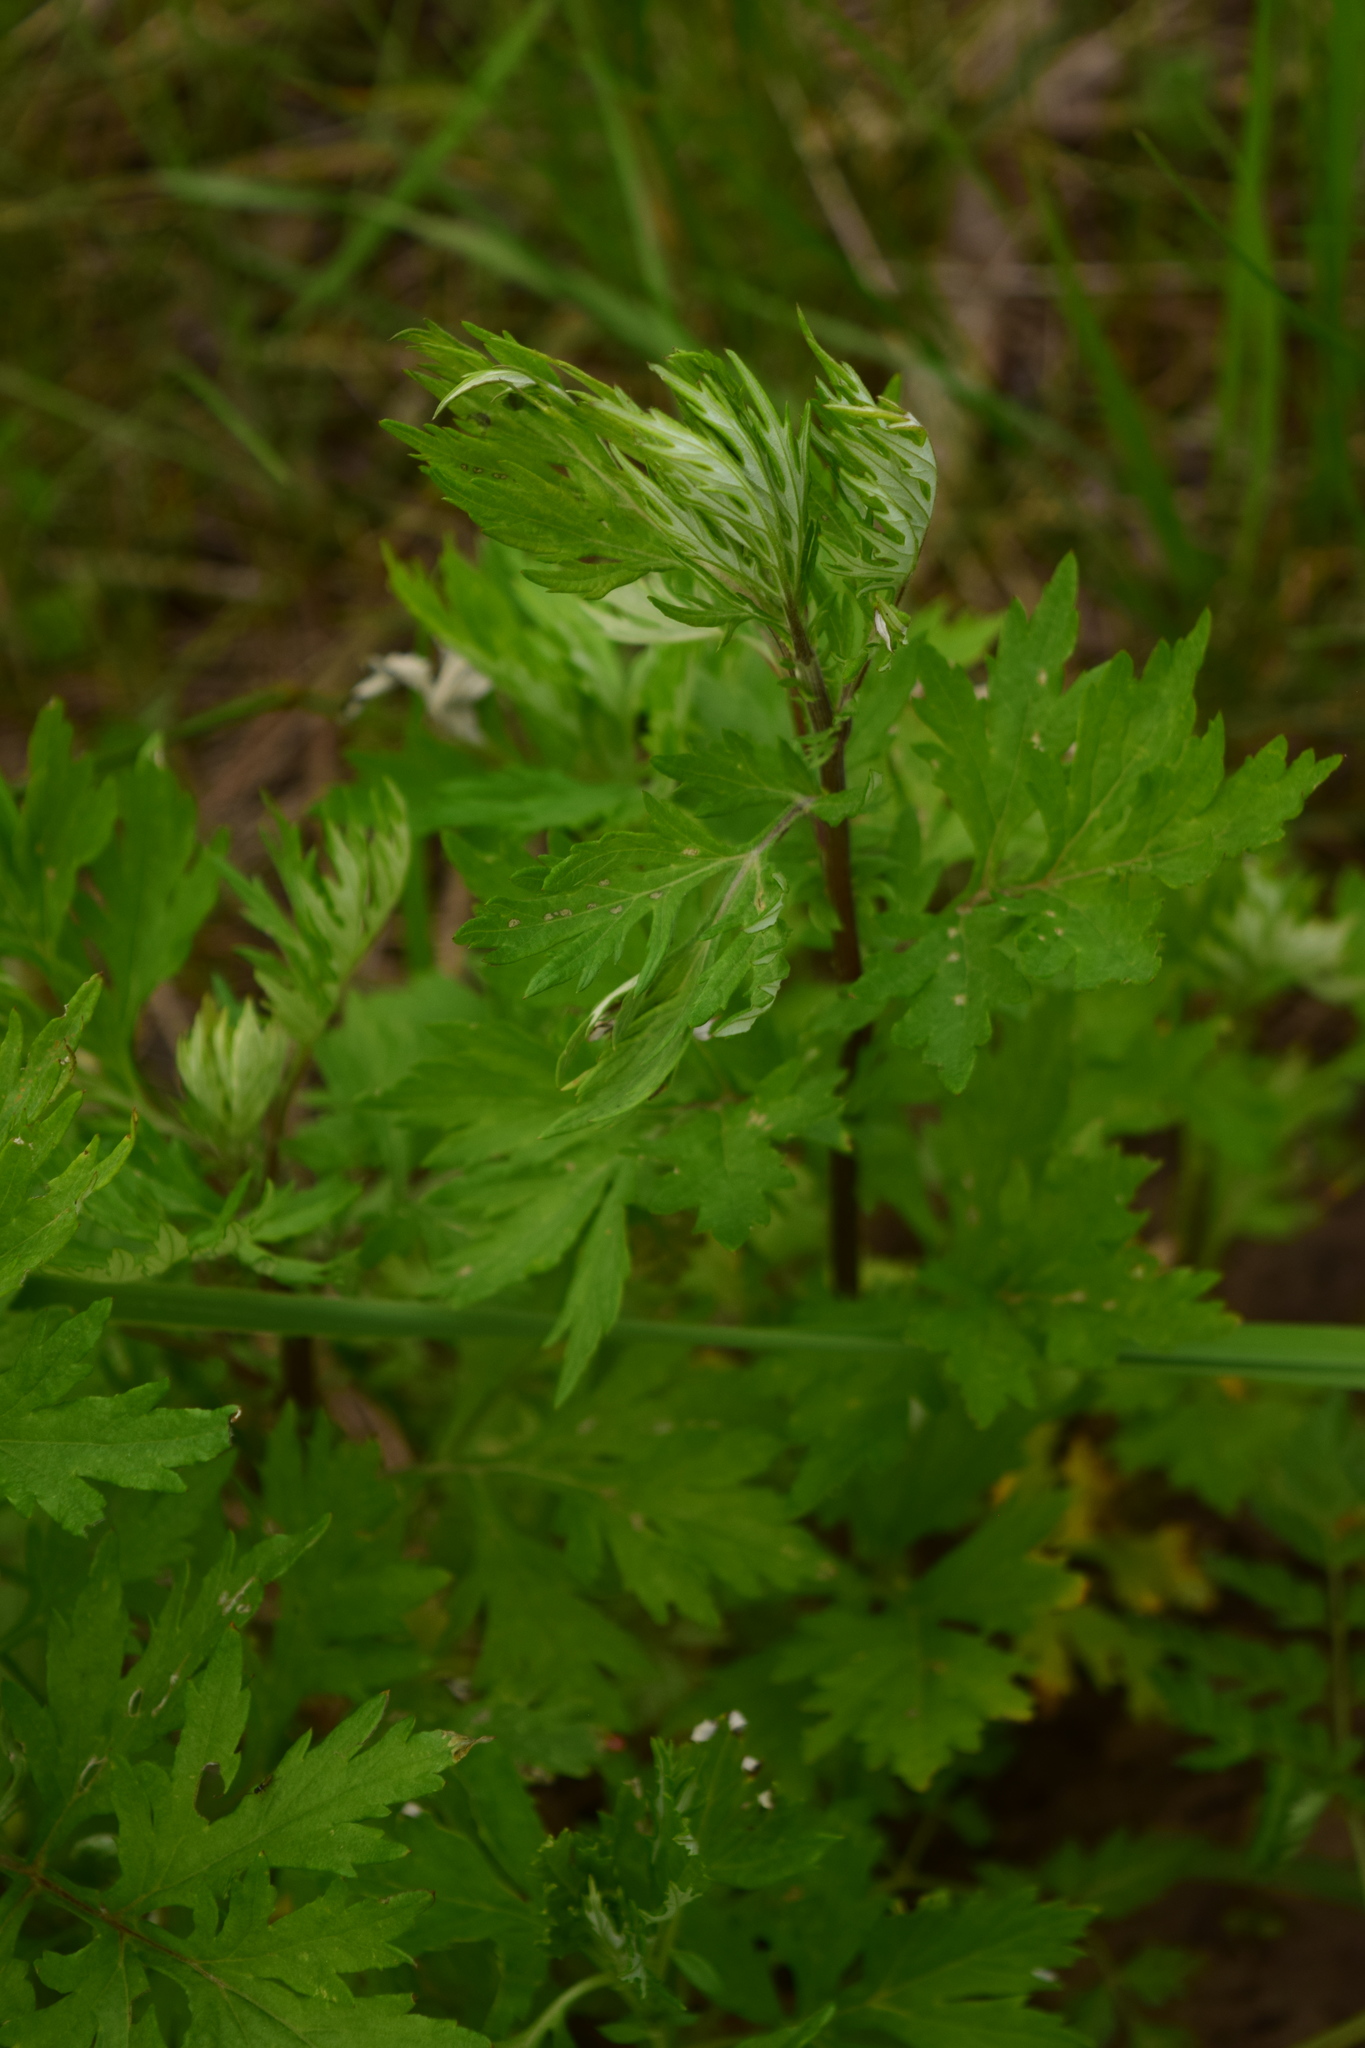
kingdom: Plantae
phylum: Tracheophyta
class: Magnoliopsida
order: Asterales
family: Asteraceae
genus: Artemisia
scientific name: Artemisia vulgaris
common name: Mugwort
